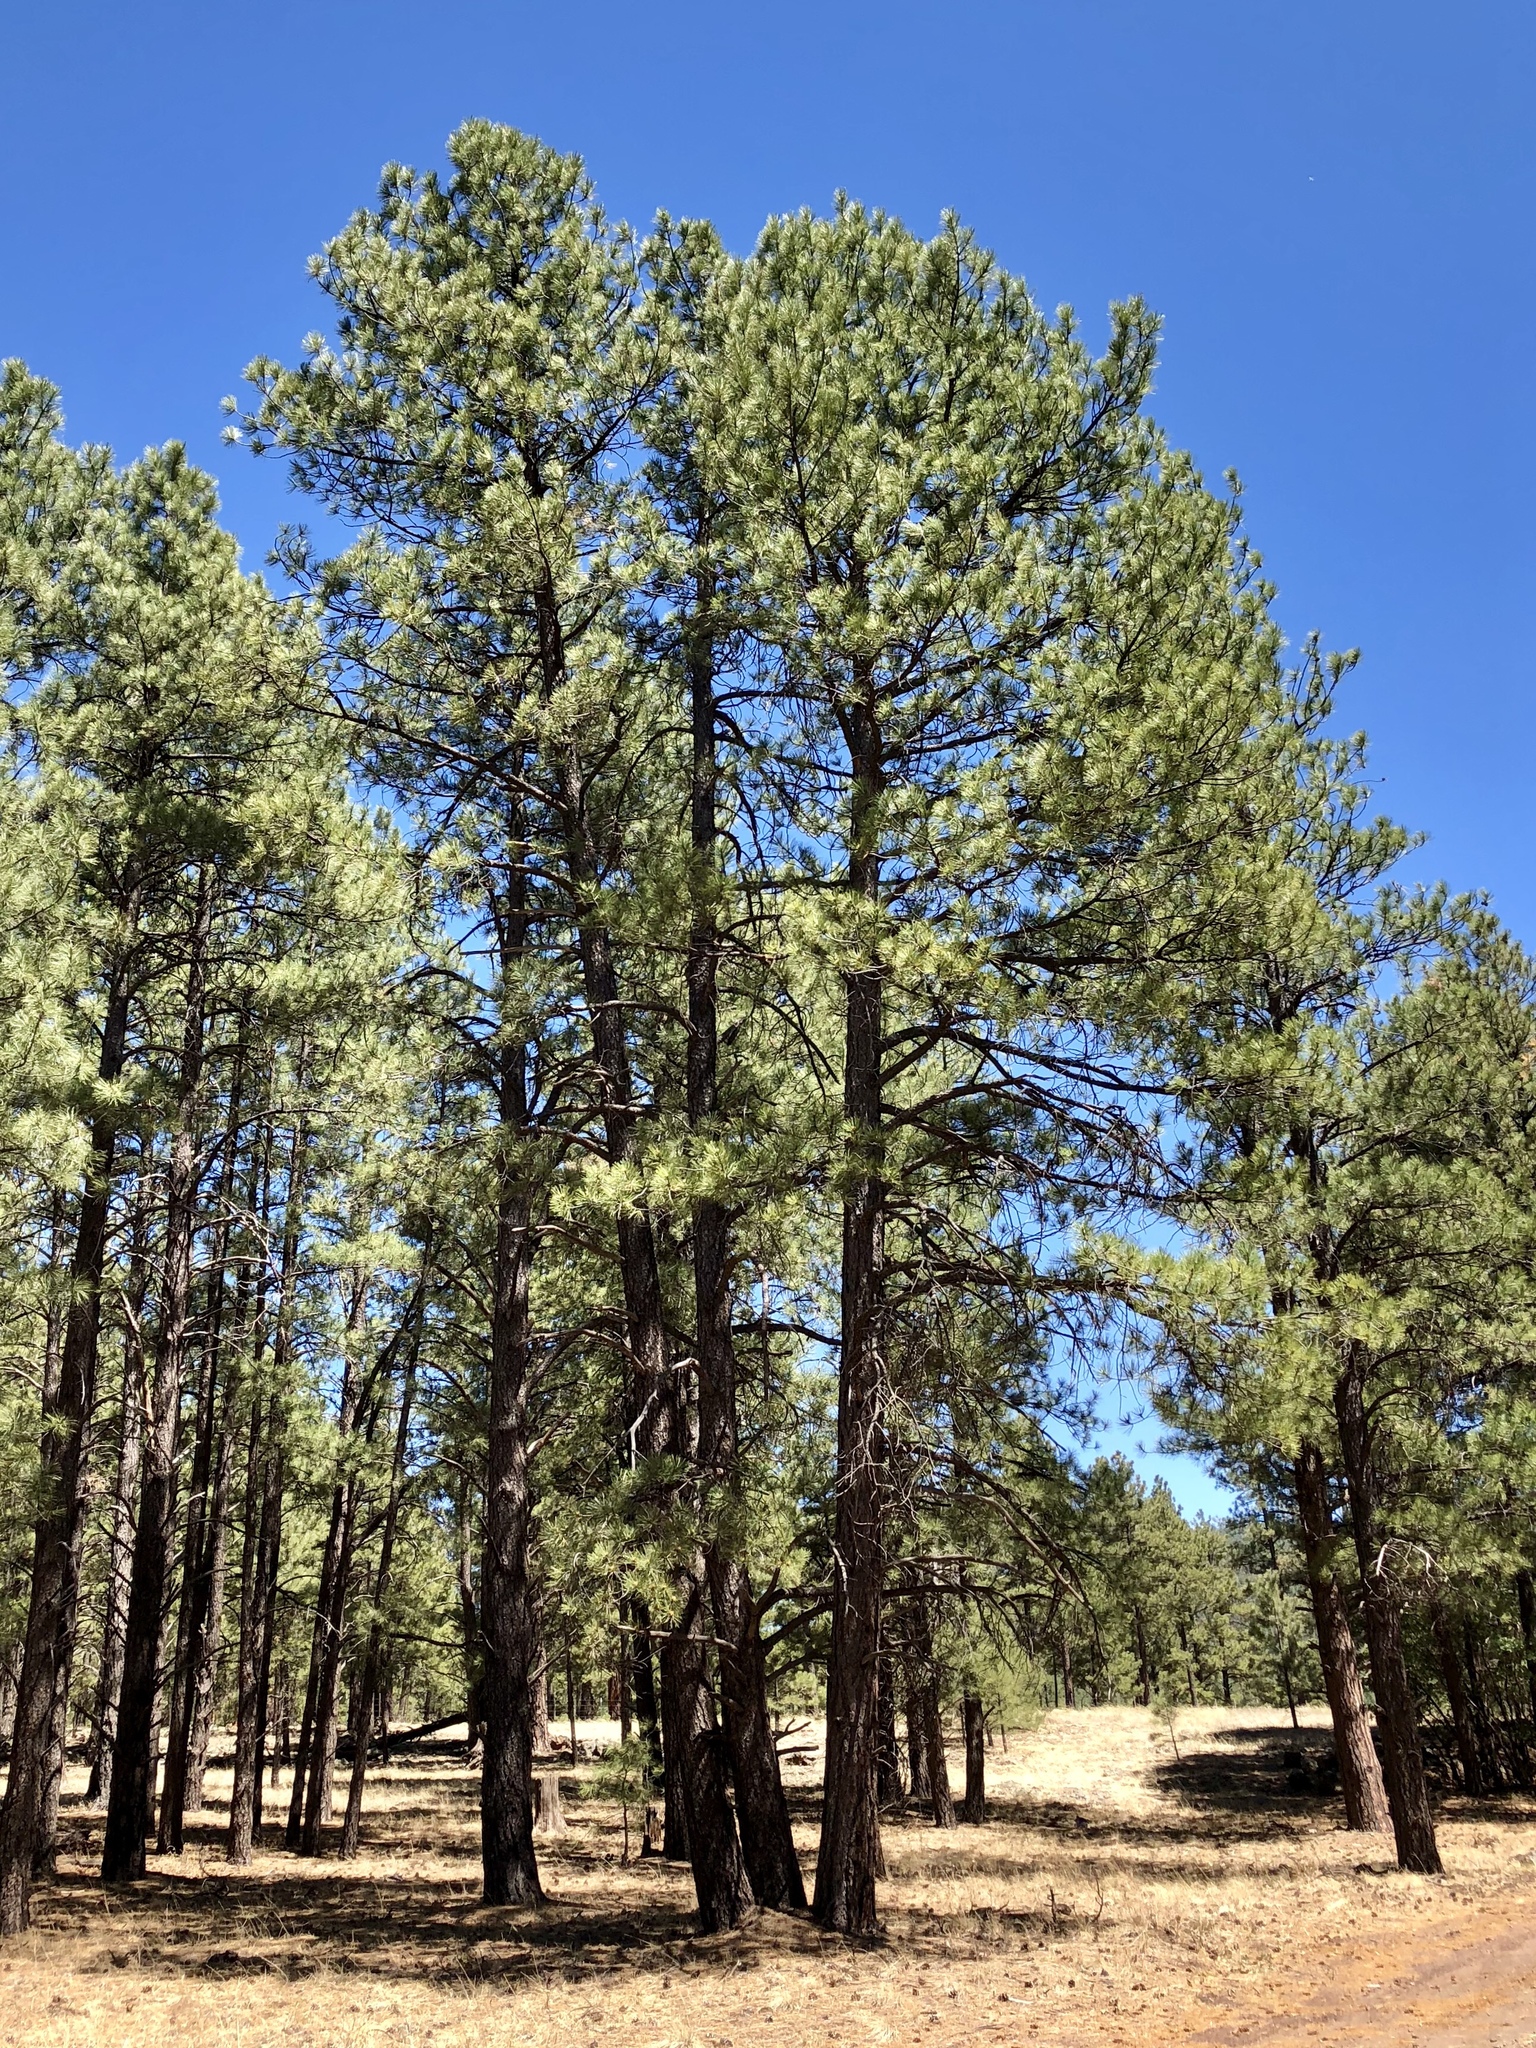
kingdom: Plantae
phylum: Tracheophyta
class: Pinopsida
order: Pinales
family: Pinaceae
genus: Pinus
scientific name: Pinus ponderosa
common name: Western yellow-pine
